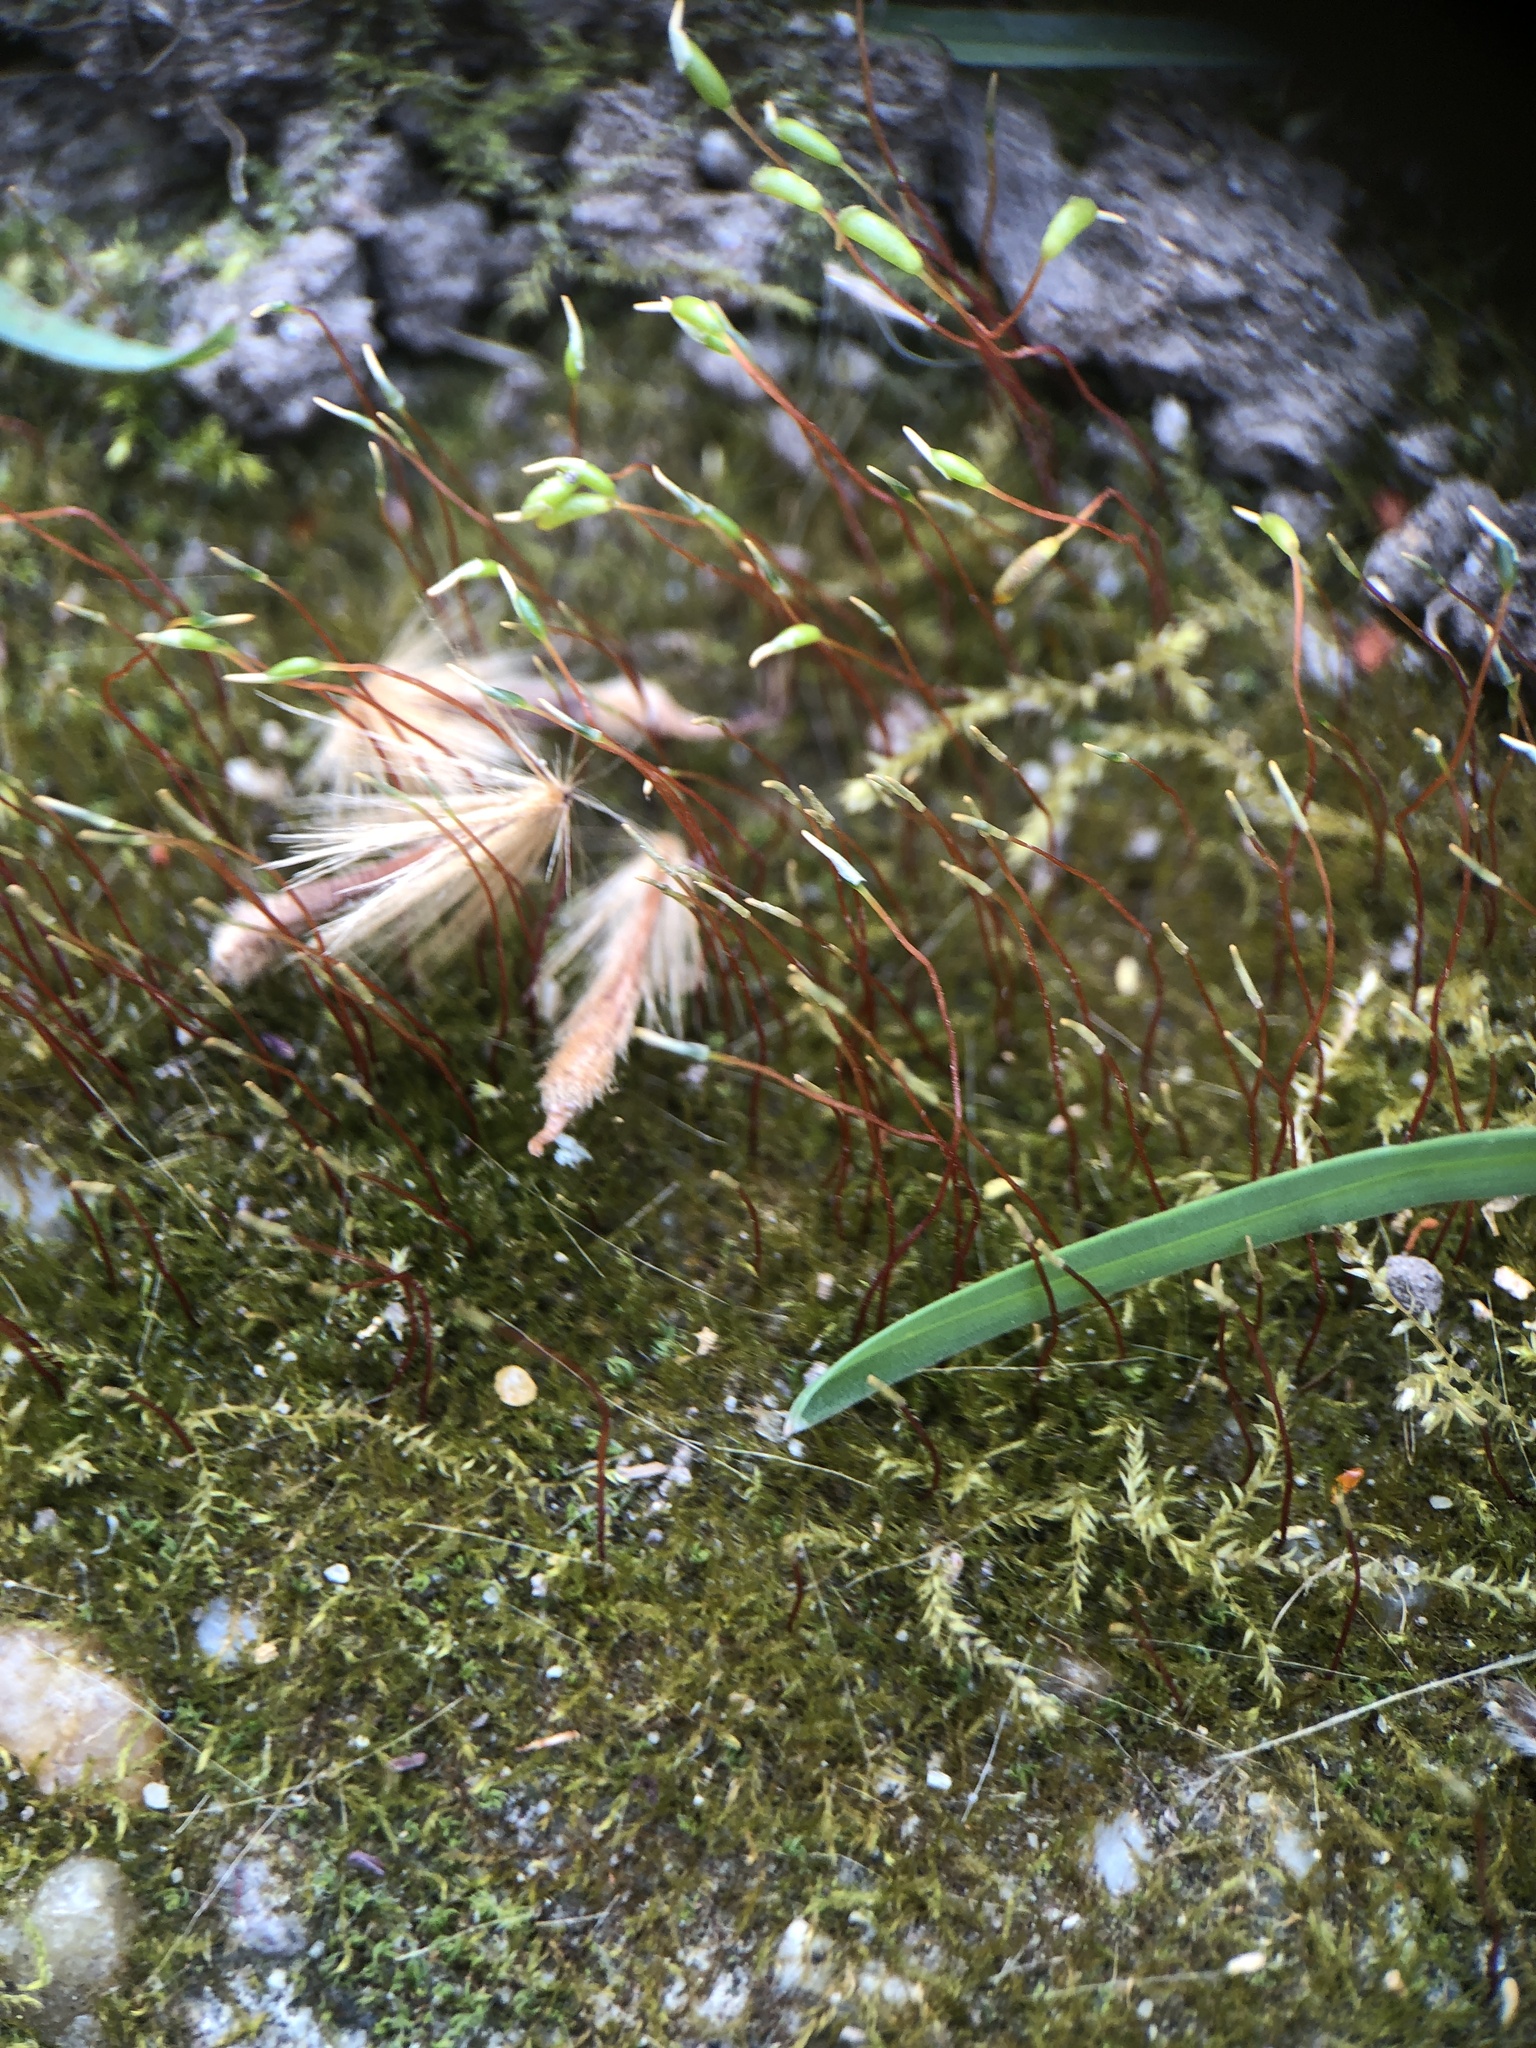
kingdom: Plantae
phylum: Bryophyta
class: Bryopsida
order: Hypnales
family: Amblystegiaceae
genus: Amblystegium
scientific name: Amblystegium serpens
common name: Jurkatzka's feather moss
